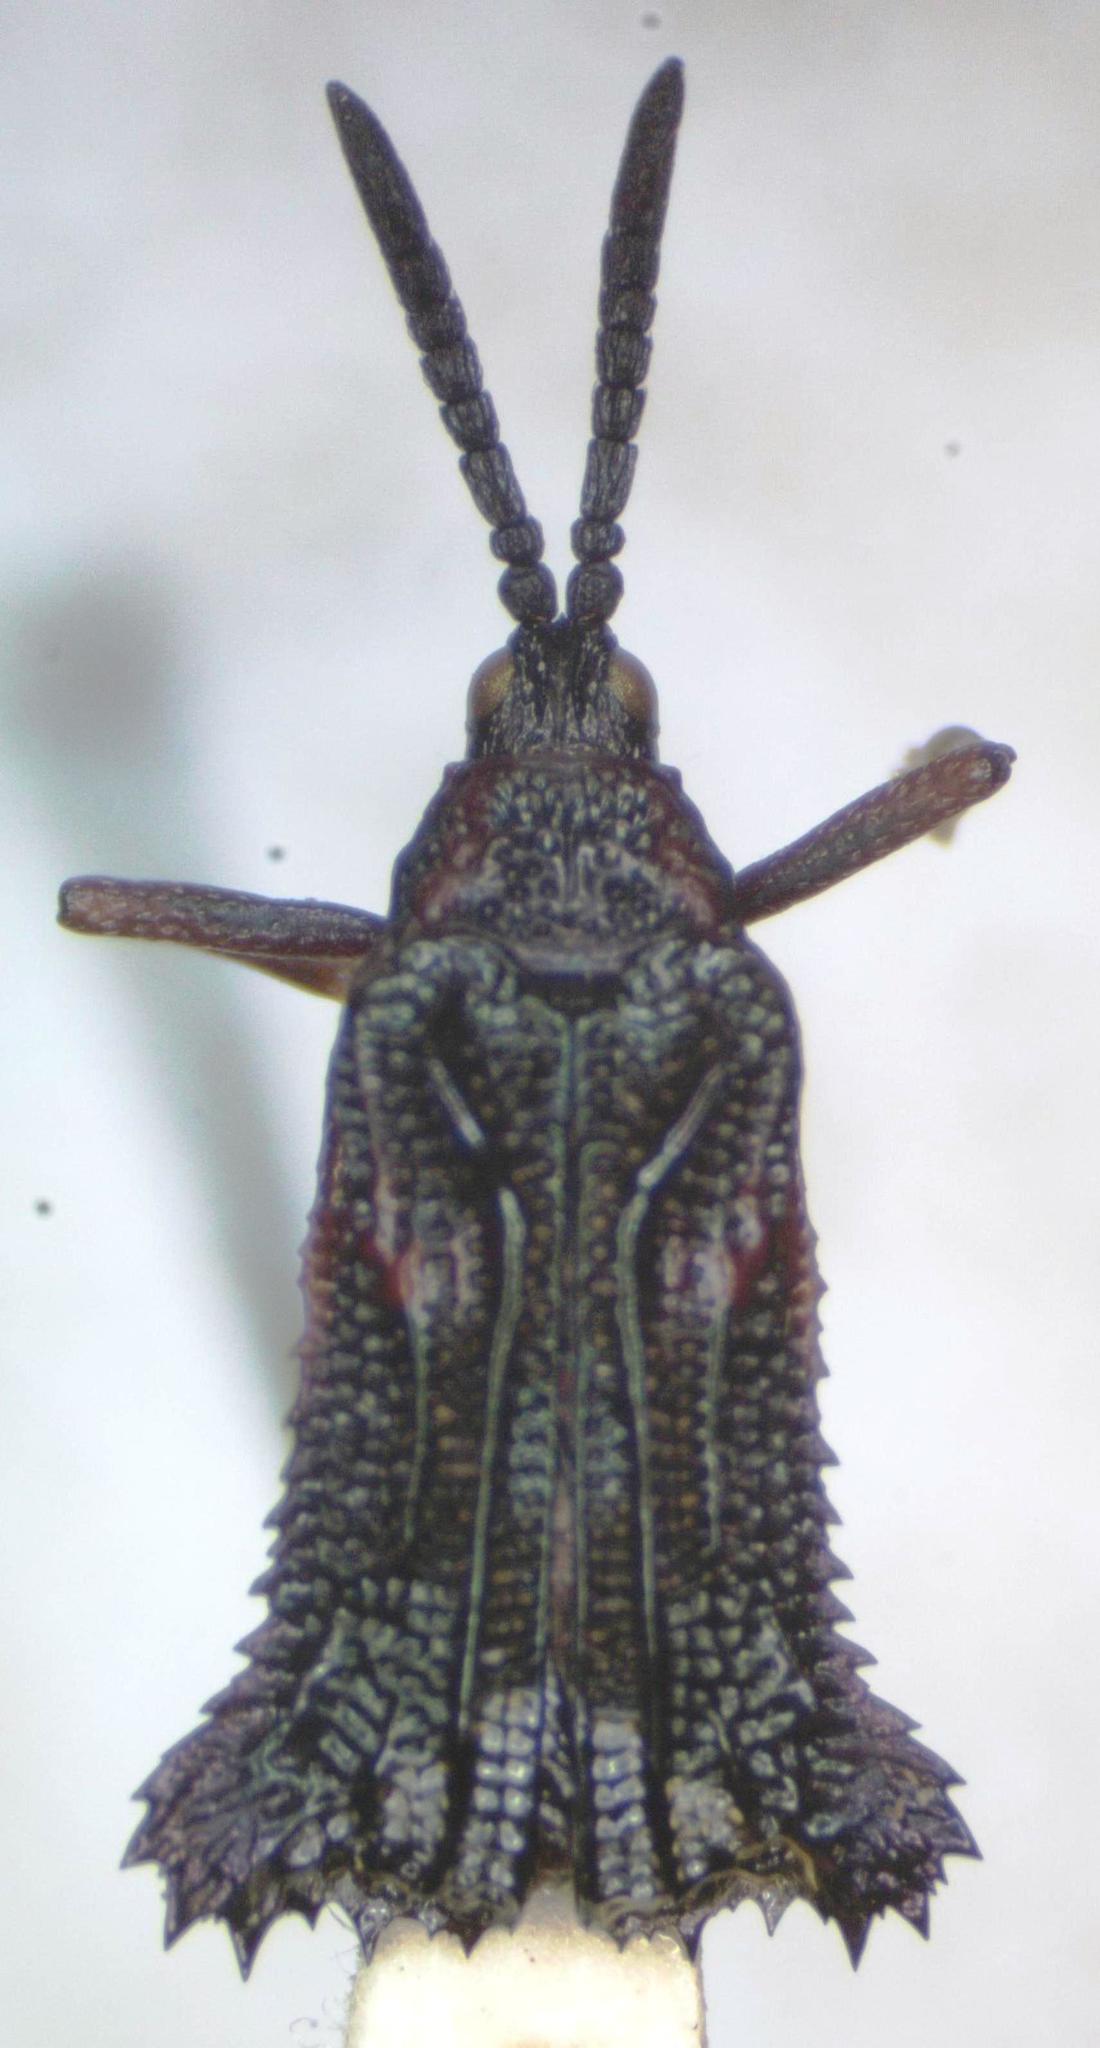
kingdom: Animalia
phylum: Arthropoda
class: Insecta
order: Coleoptera
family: Chrysomelidae
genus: Euprionota
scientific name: Euprionota aterrima
